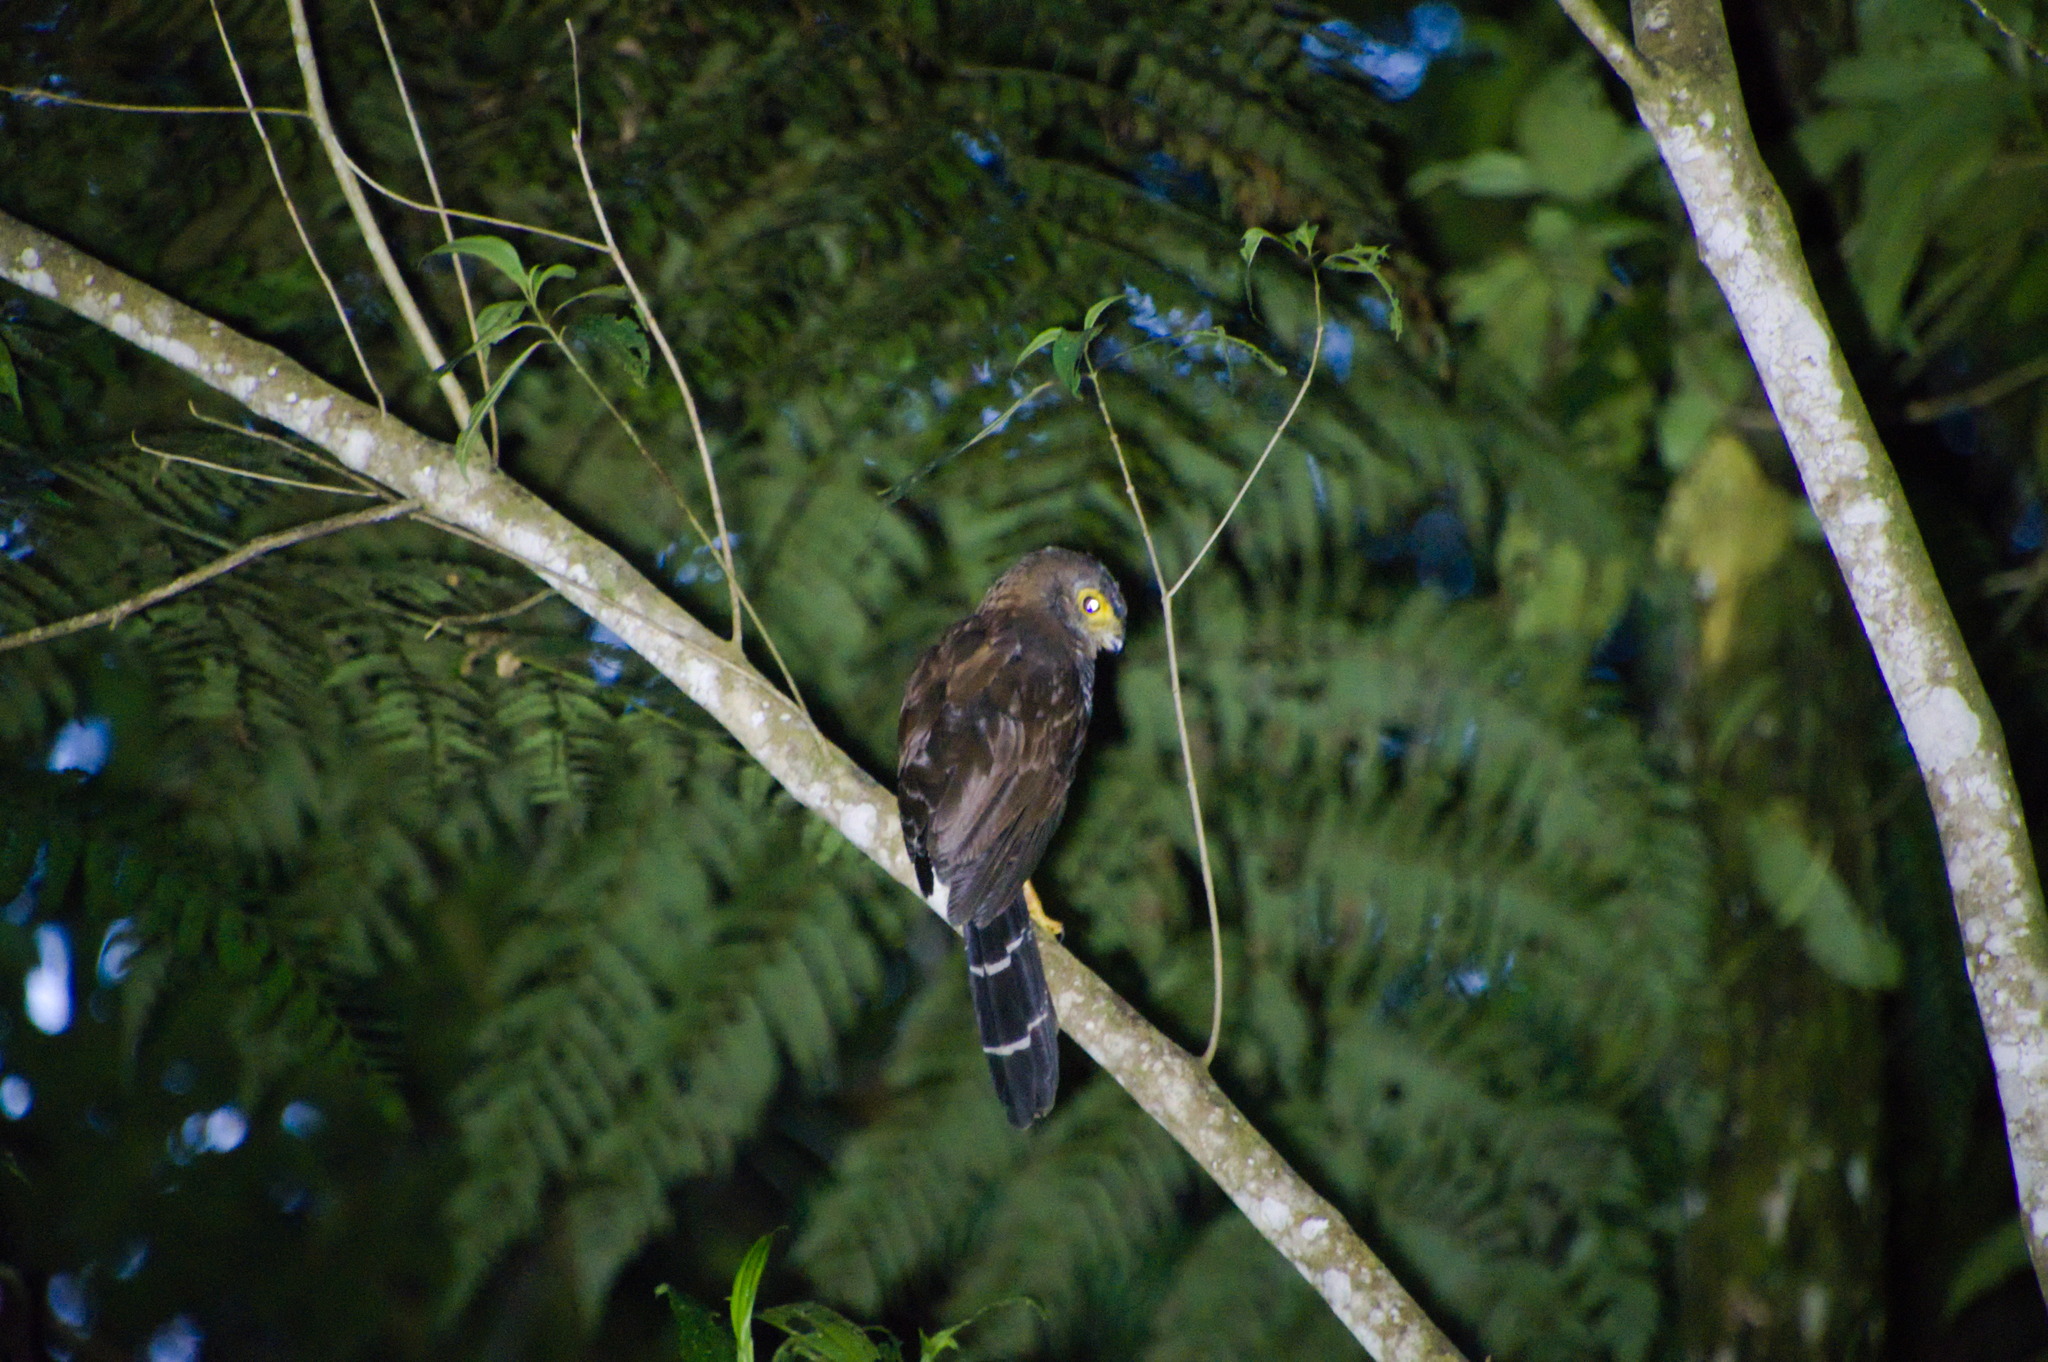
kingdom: Animalia
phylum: Chordata
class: Aves
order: Falconiformes
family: Falconidae
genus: Micrastur
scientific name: Micrastur ruficollis
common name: Barred forest-falcon
